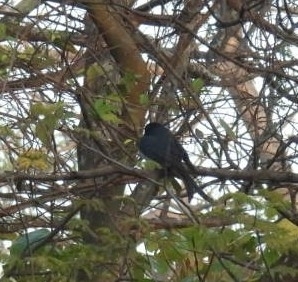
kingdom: Animalia
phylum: Chordata
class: Aves
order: Passeriformes
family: Dicruridae
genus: Dicrurus
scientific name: Dicrurus caerulescens
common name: White-bellied drongo
